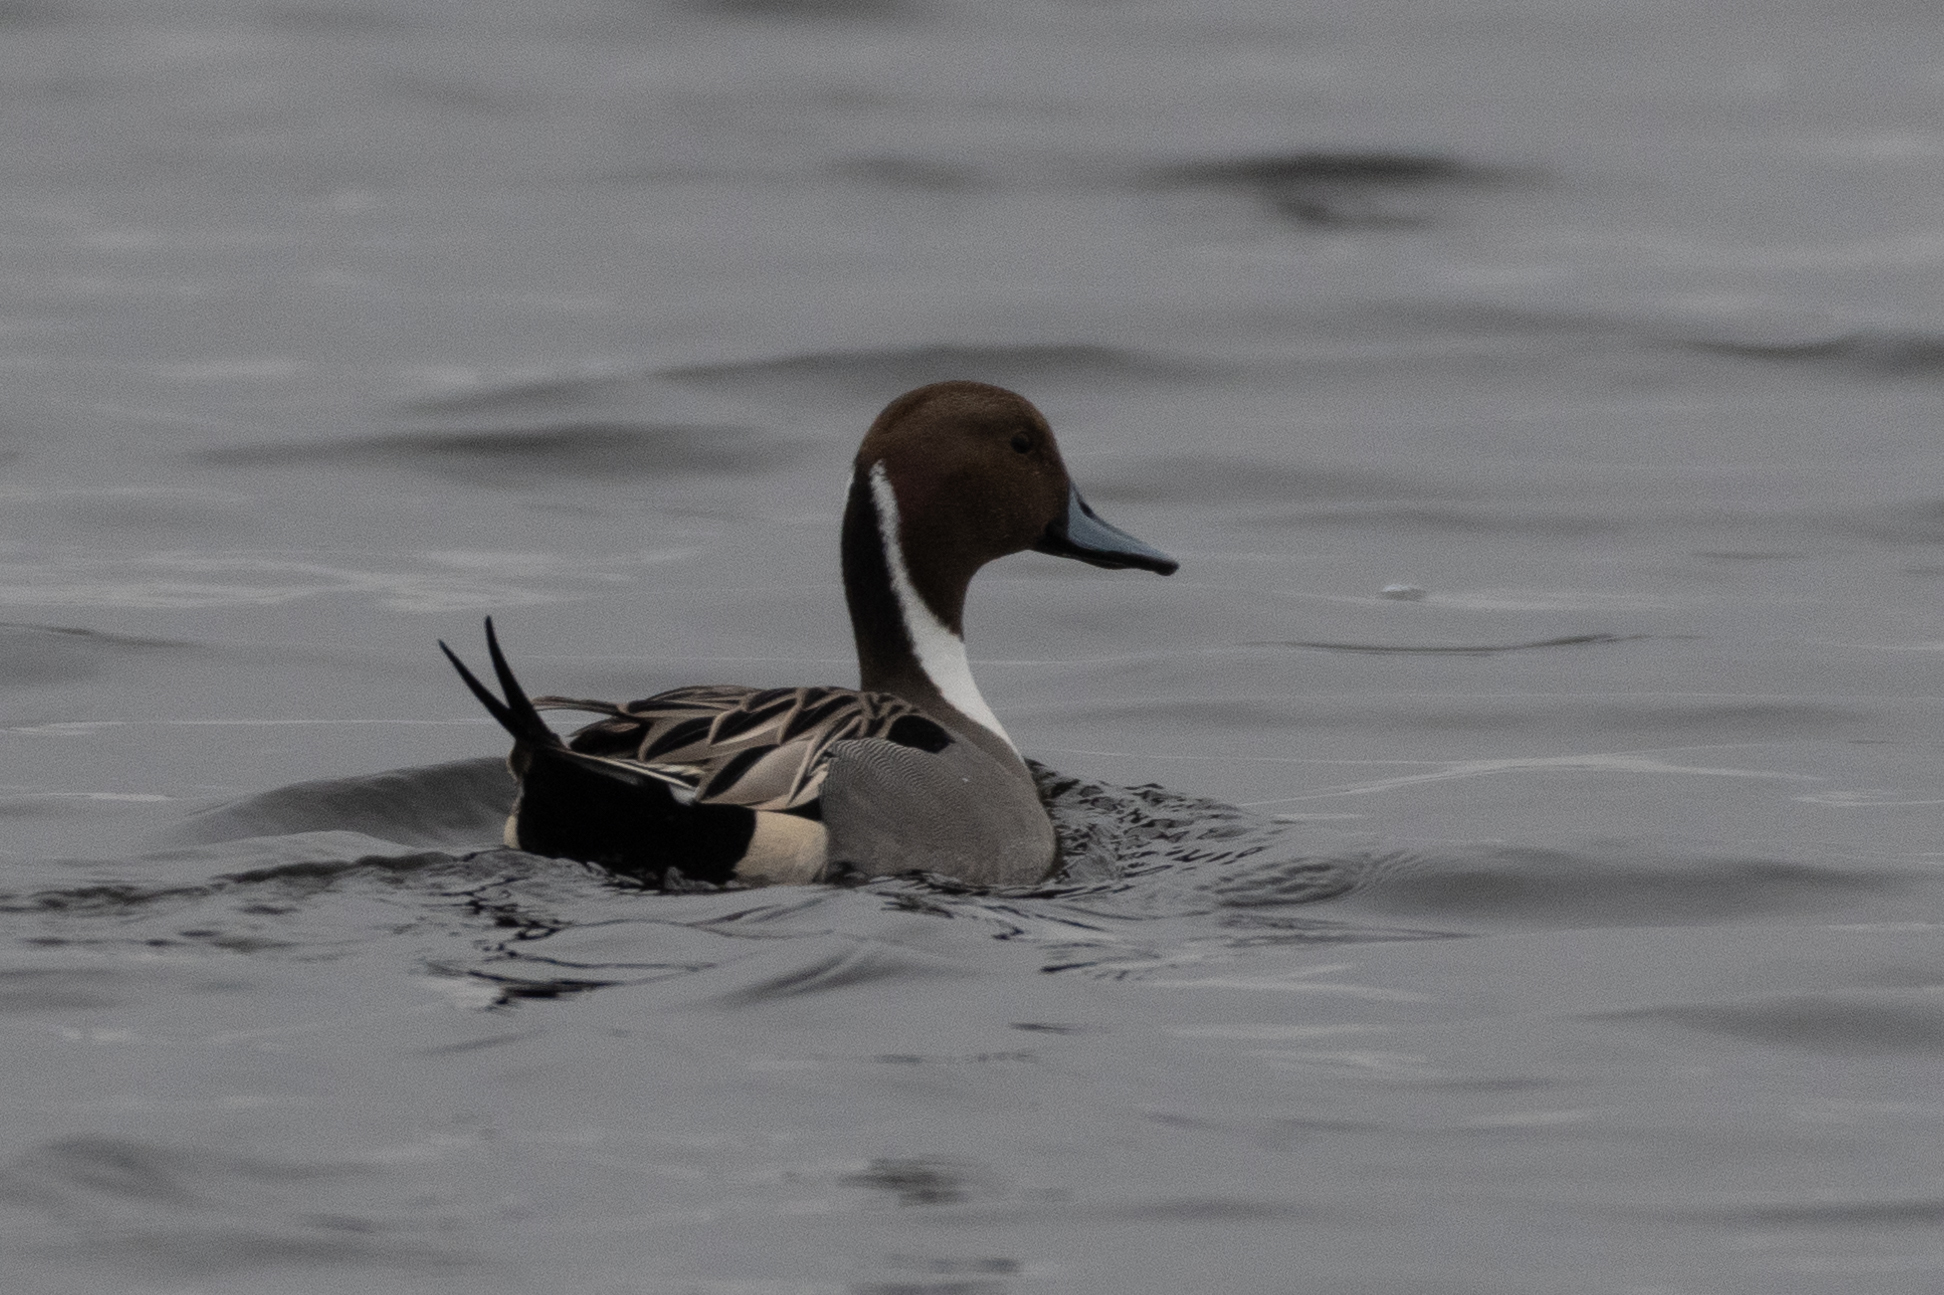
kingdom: Animalia
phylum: Chordata
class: Aves
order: Anseriformes
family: Anatidae
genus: Anas
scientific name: Anas acuta
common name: Northern pintail
